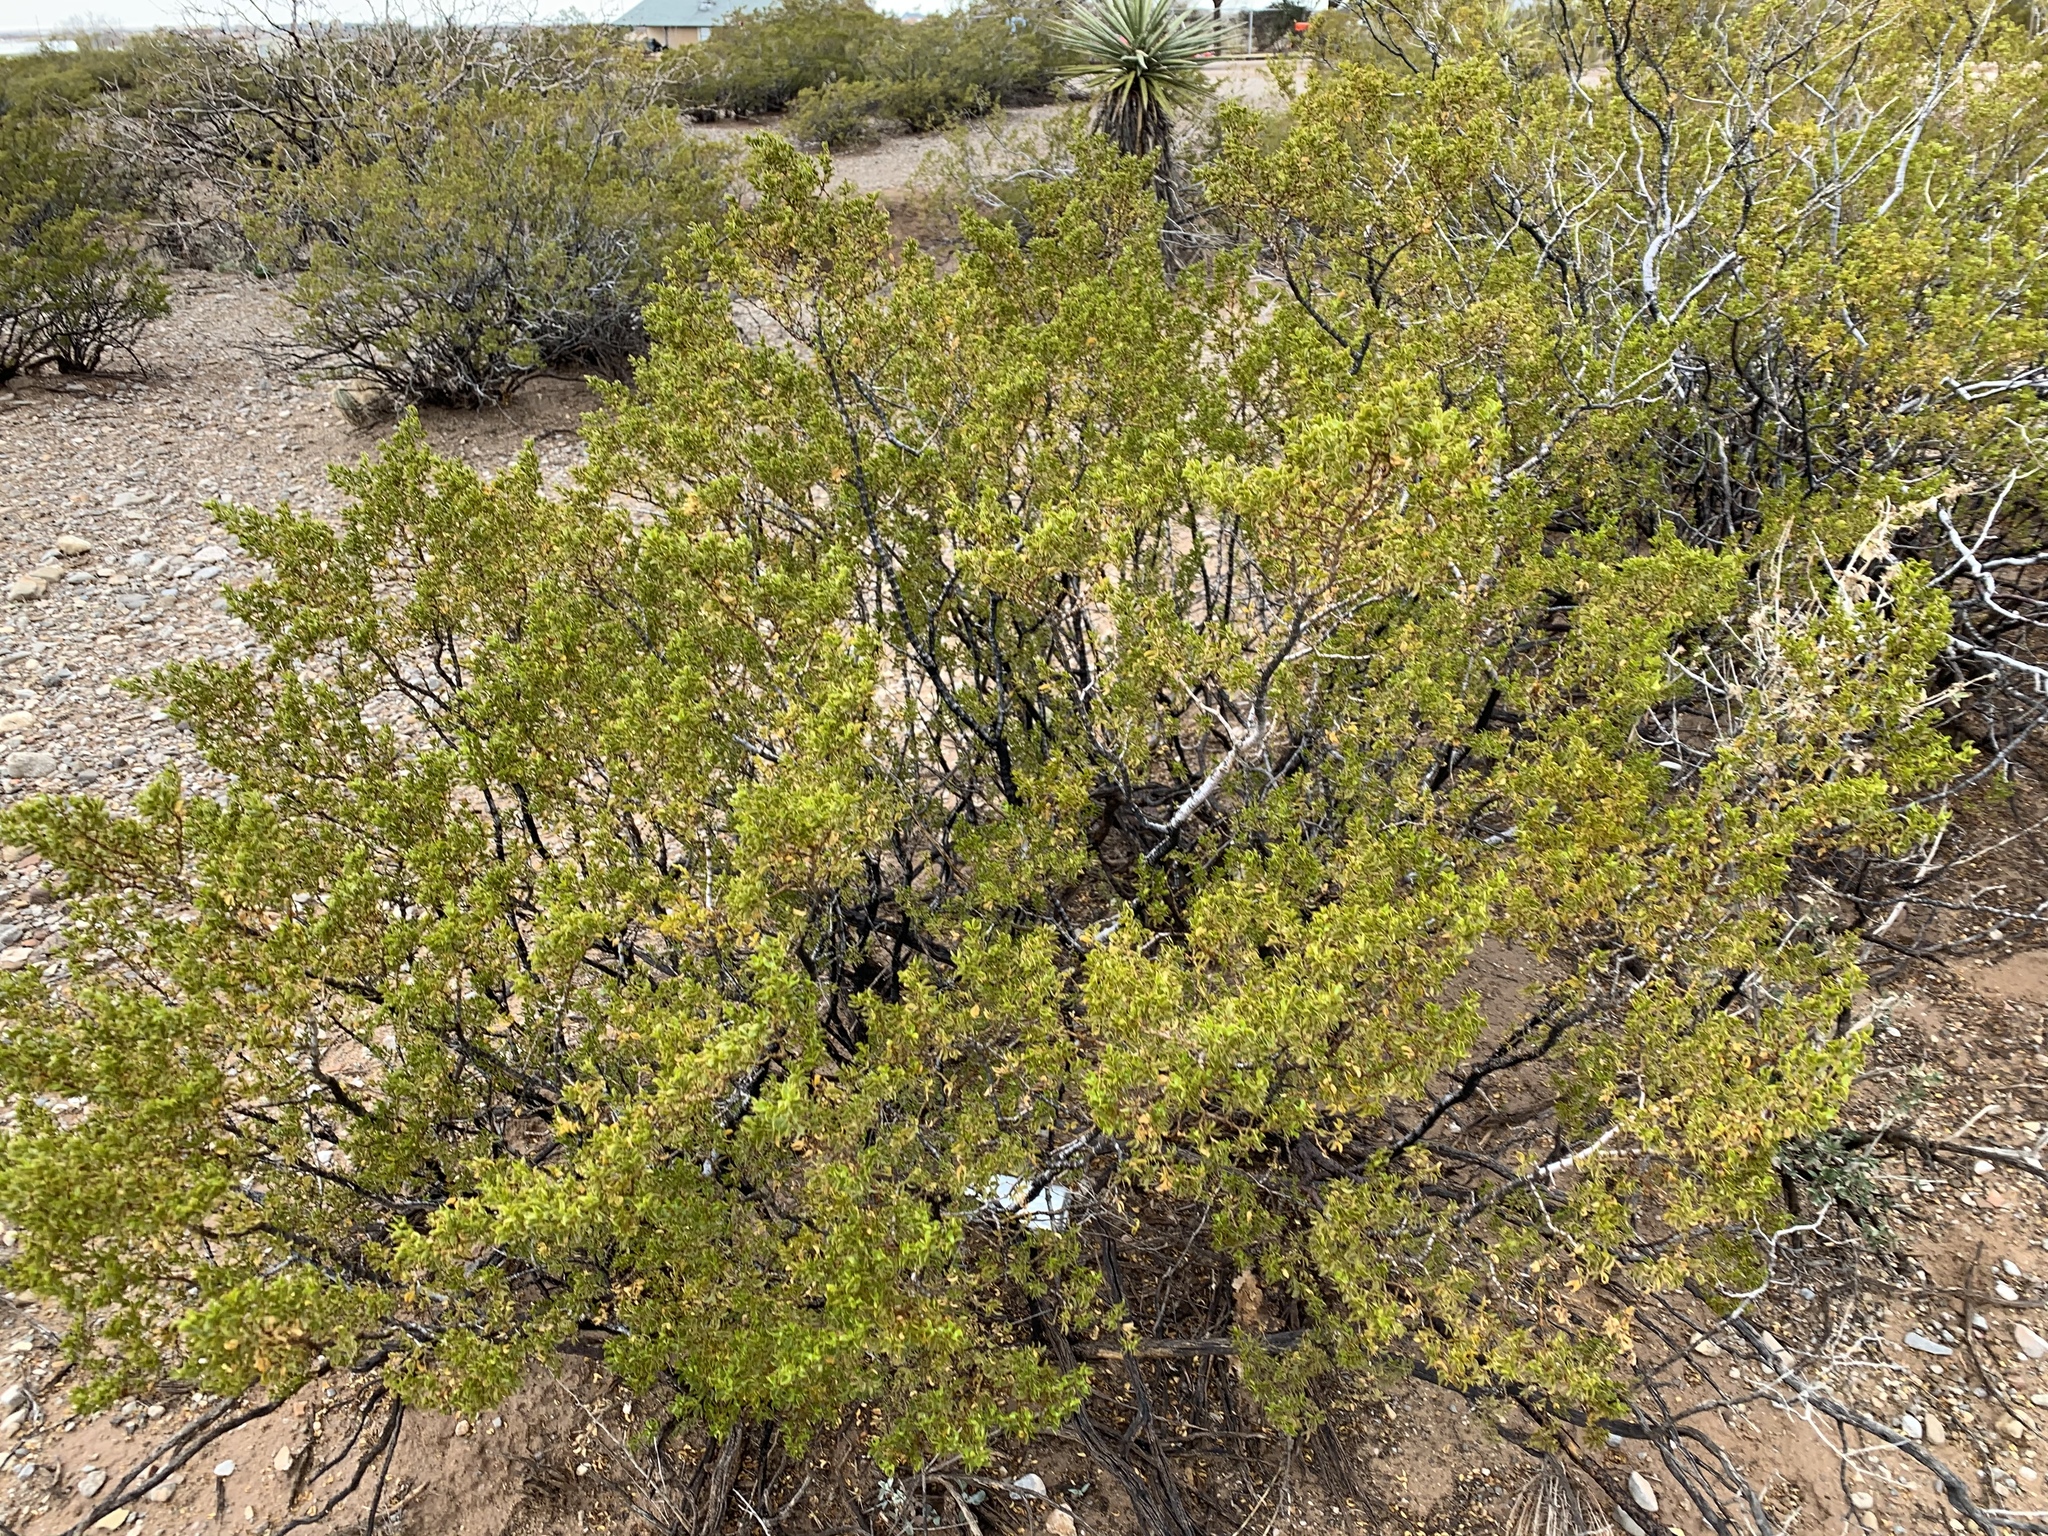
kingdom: Plantae
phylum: Tracheophyta
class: Magnoliopsida
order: Zygophyllales
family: Zygophyllaceae
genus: Larrea
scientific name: Larrea tridentata
